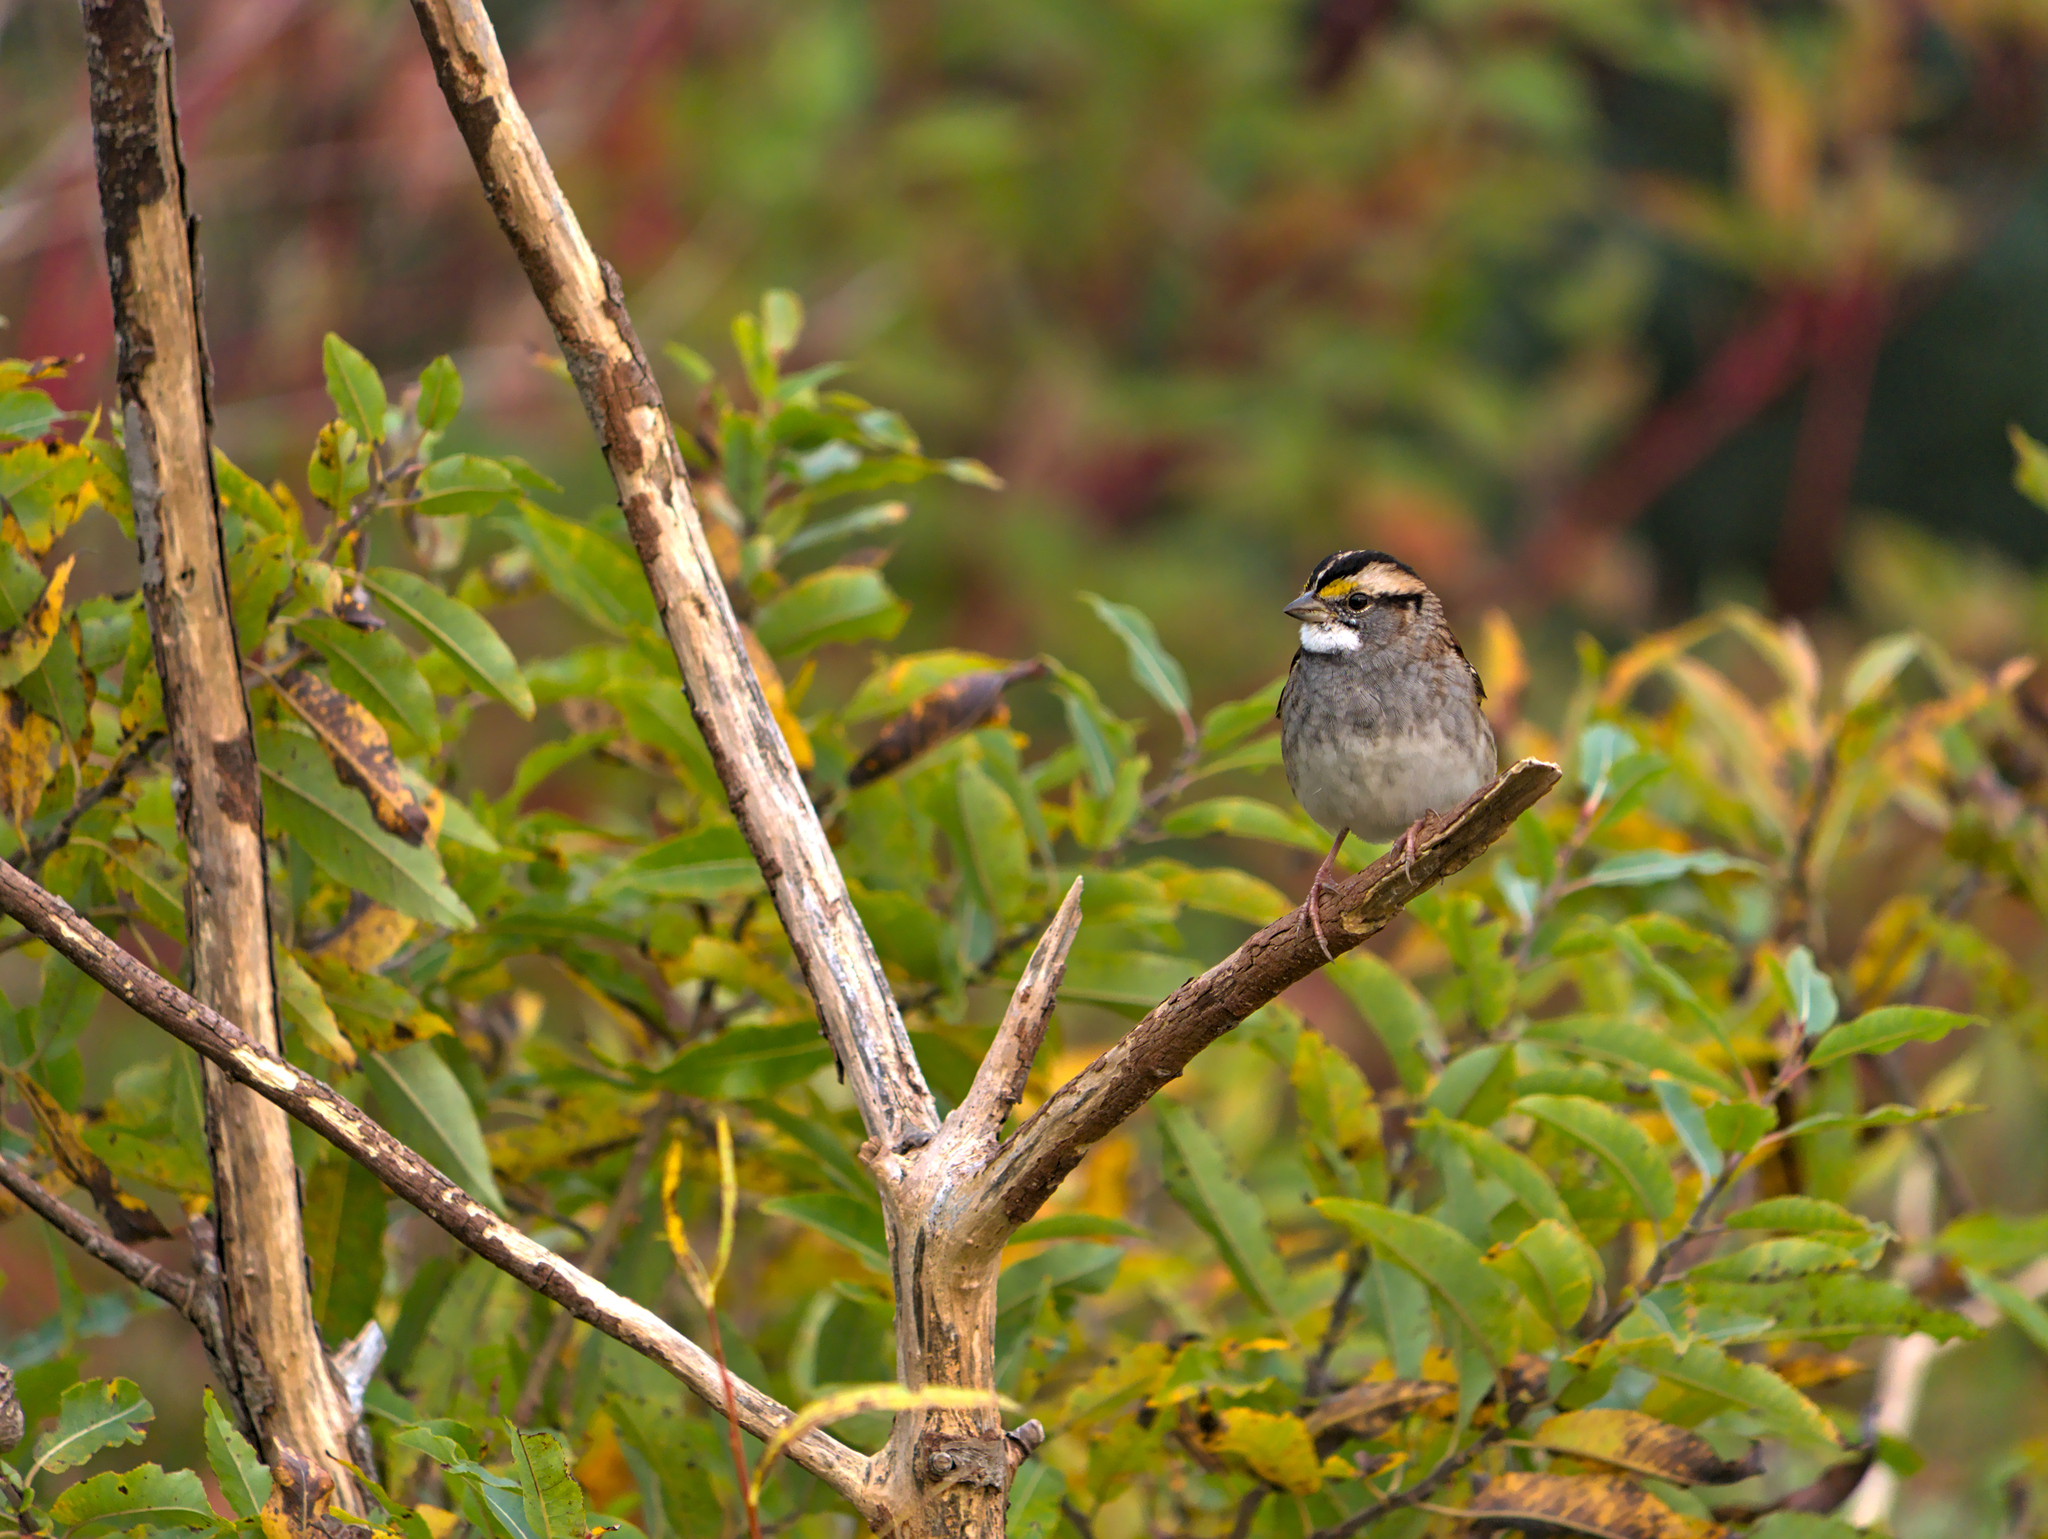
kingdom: Animalia
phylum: Chordata
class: Aves
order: Passeriformes
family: Passerellidae
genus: Zonotrichia
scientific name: Zonotrichia albicollis
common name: White-throated sparrow
